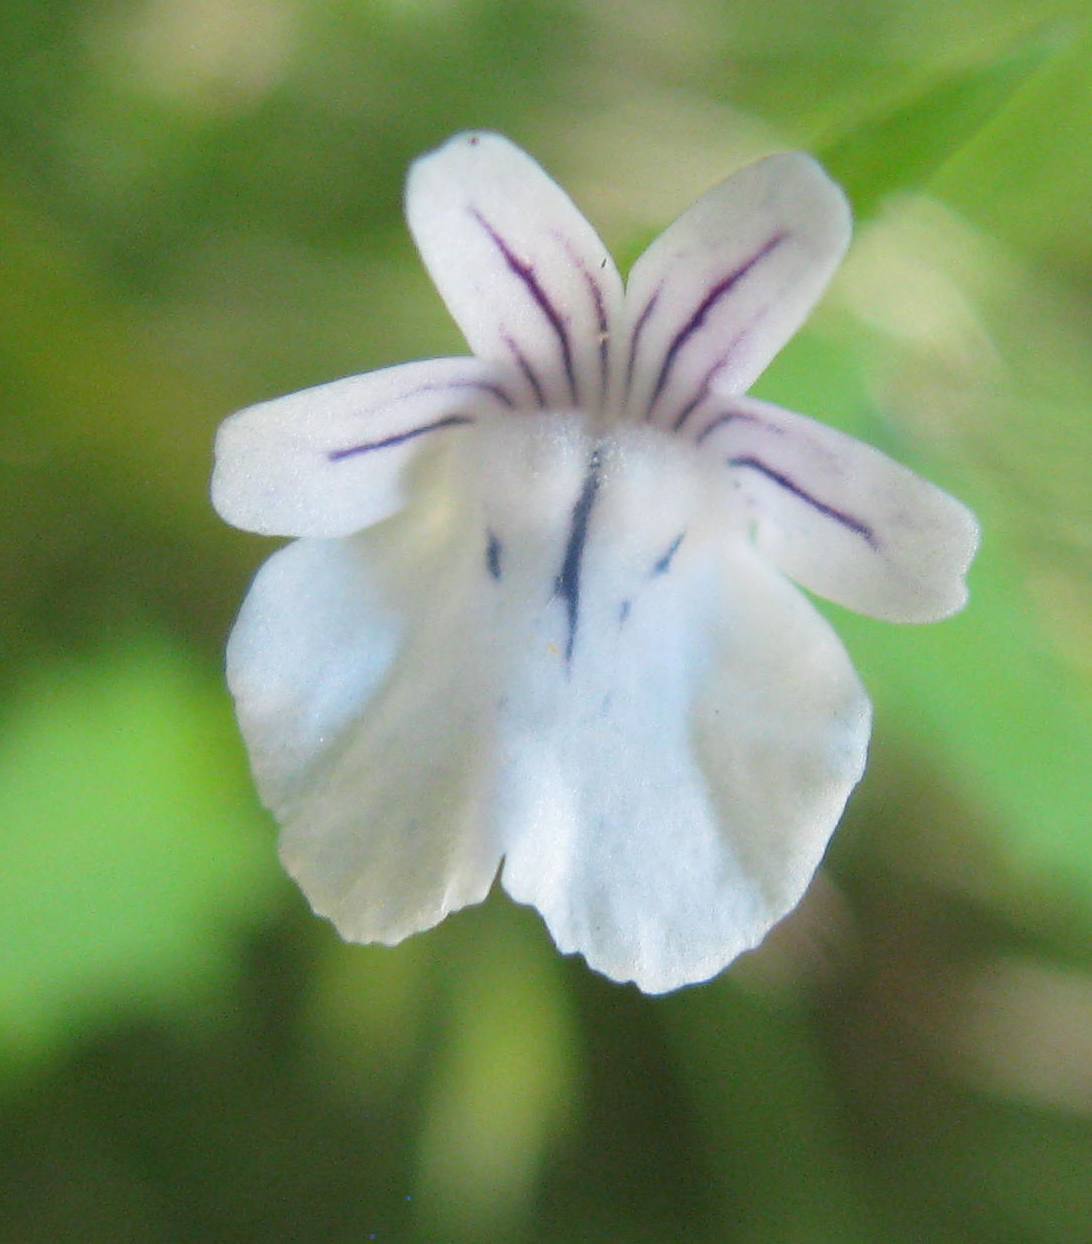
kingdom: Plantae
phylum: Tracheophyta
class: Magnoliopsida
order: Lamiales
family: Scrophulariaceae
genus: Nemesia
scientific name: Nemesia affinis
